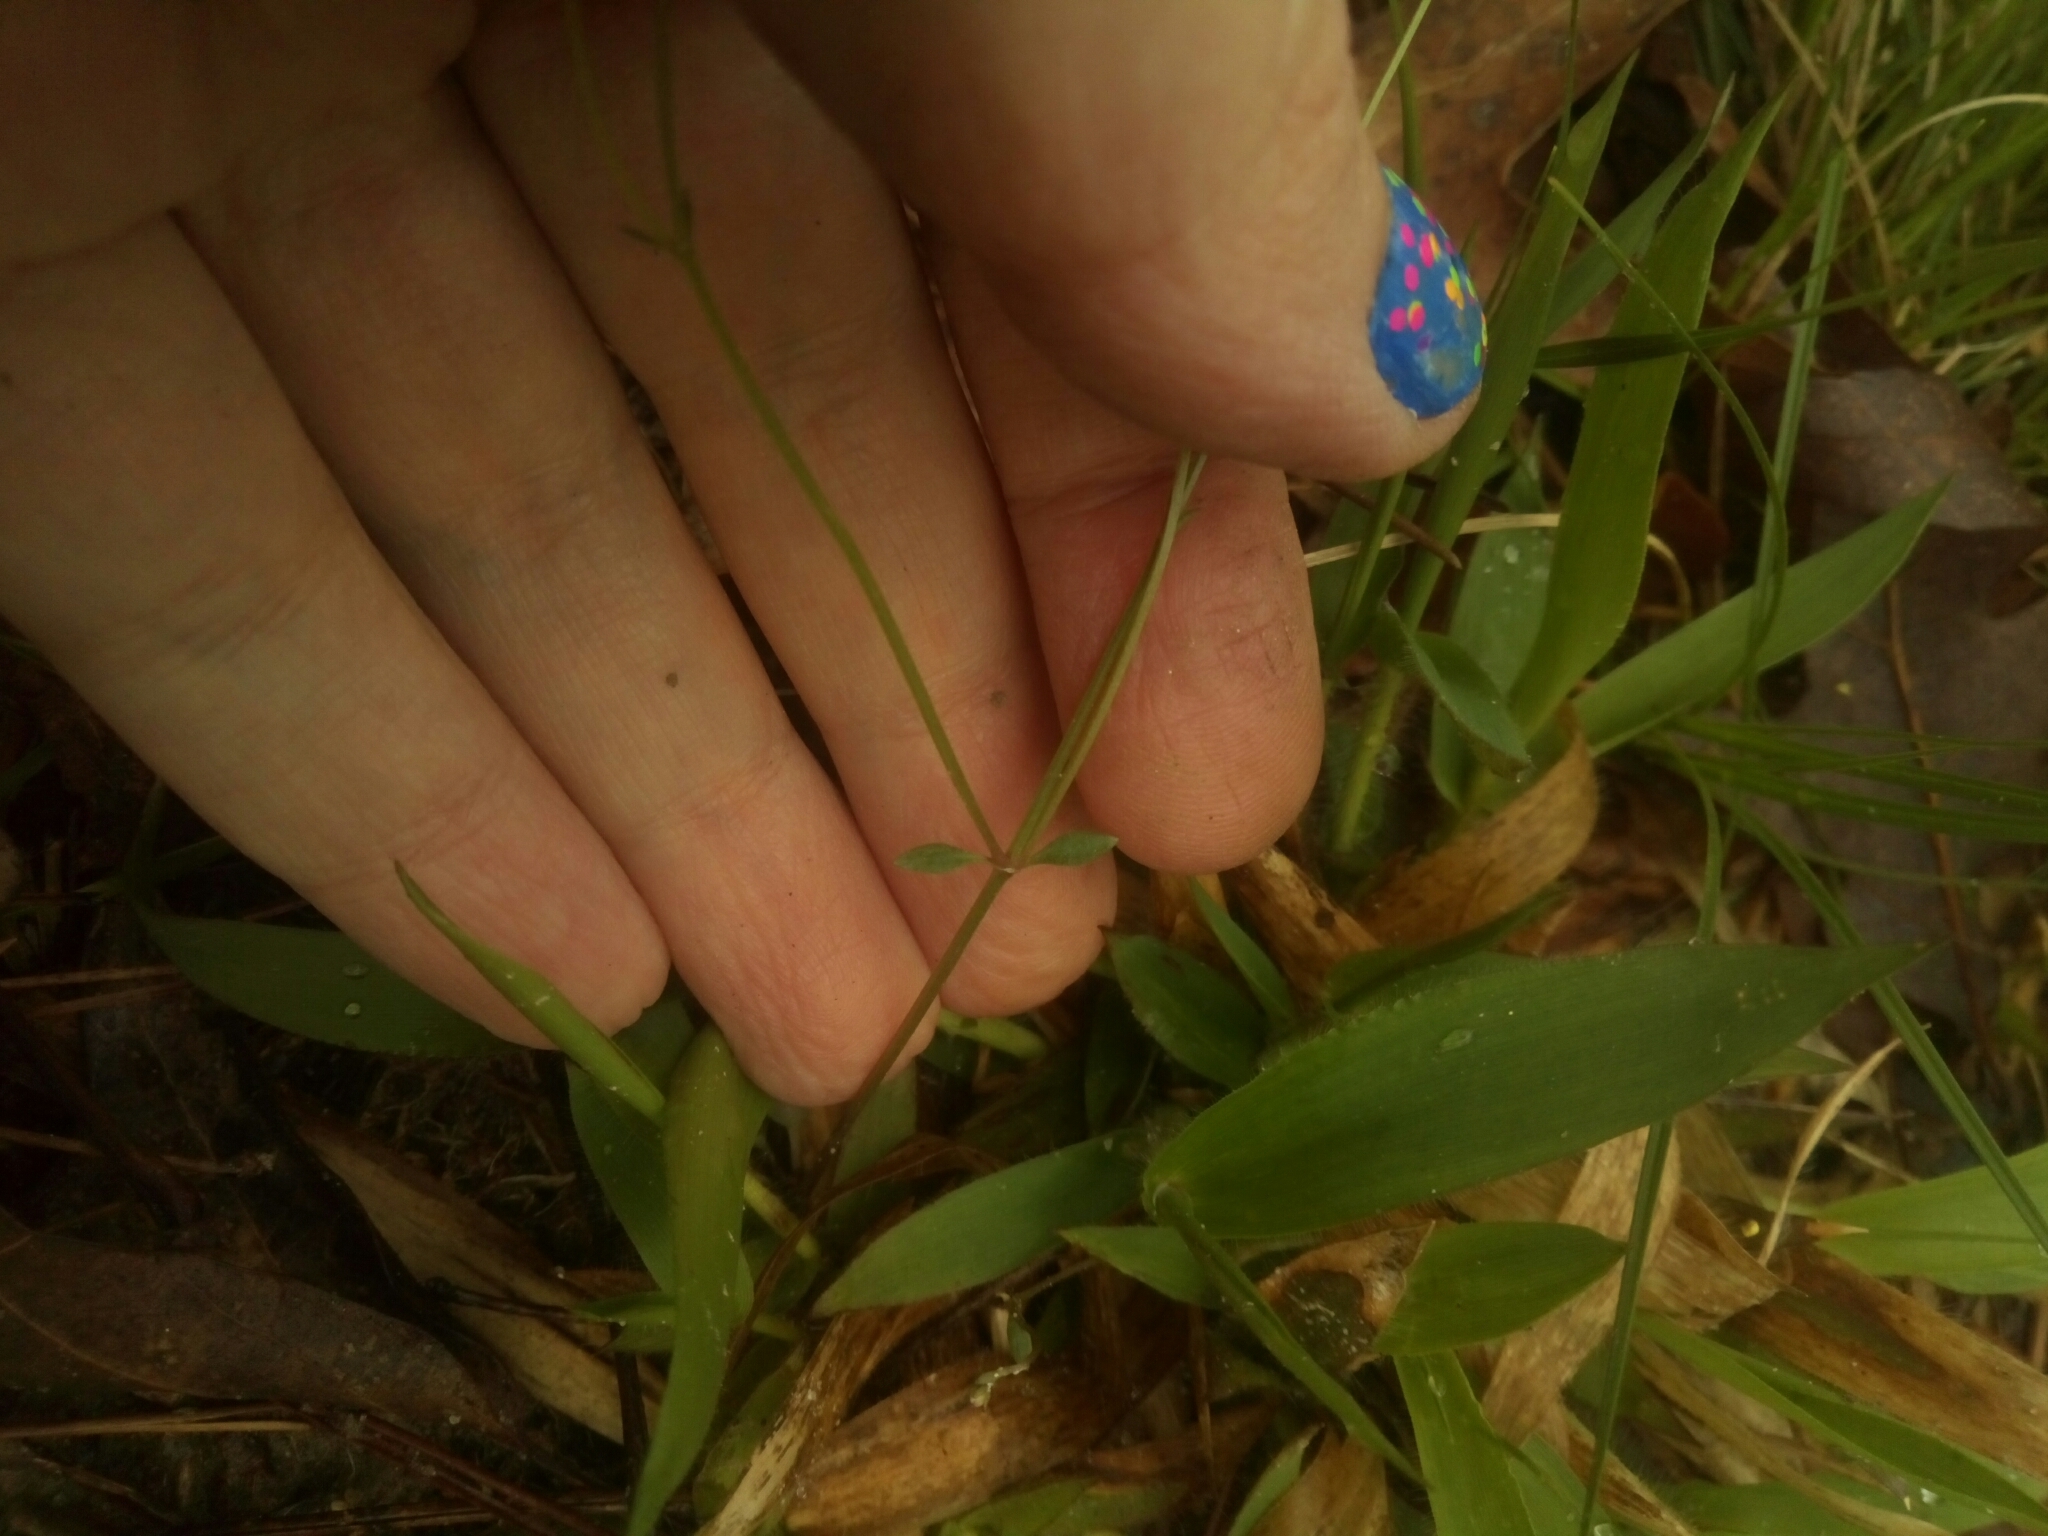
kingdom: Plantae
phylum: Tracheophyta
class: Magnoliopsida
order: Gentianales
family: Rubiaceae
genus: Houstonia
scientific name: Houstonia caerulea
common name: Bluets
